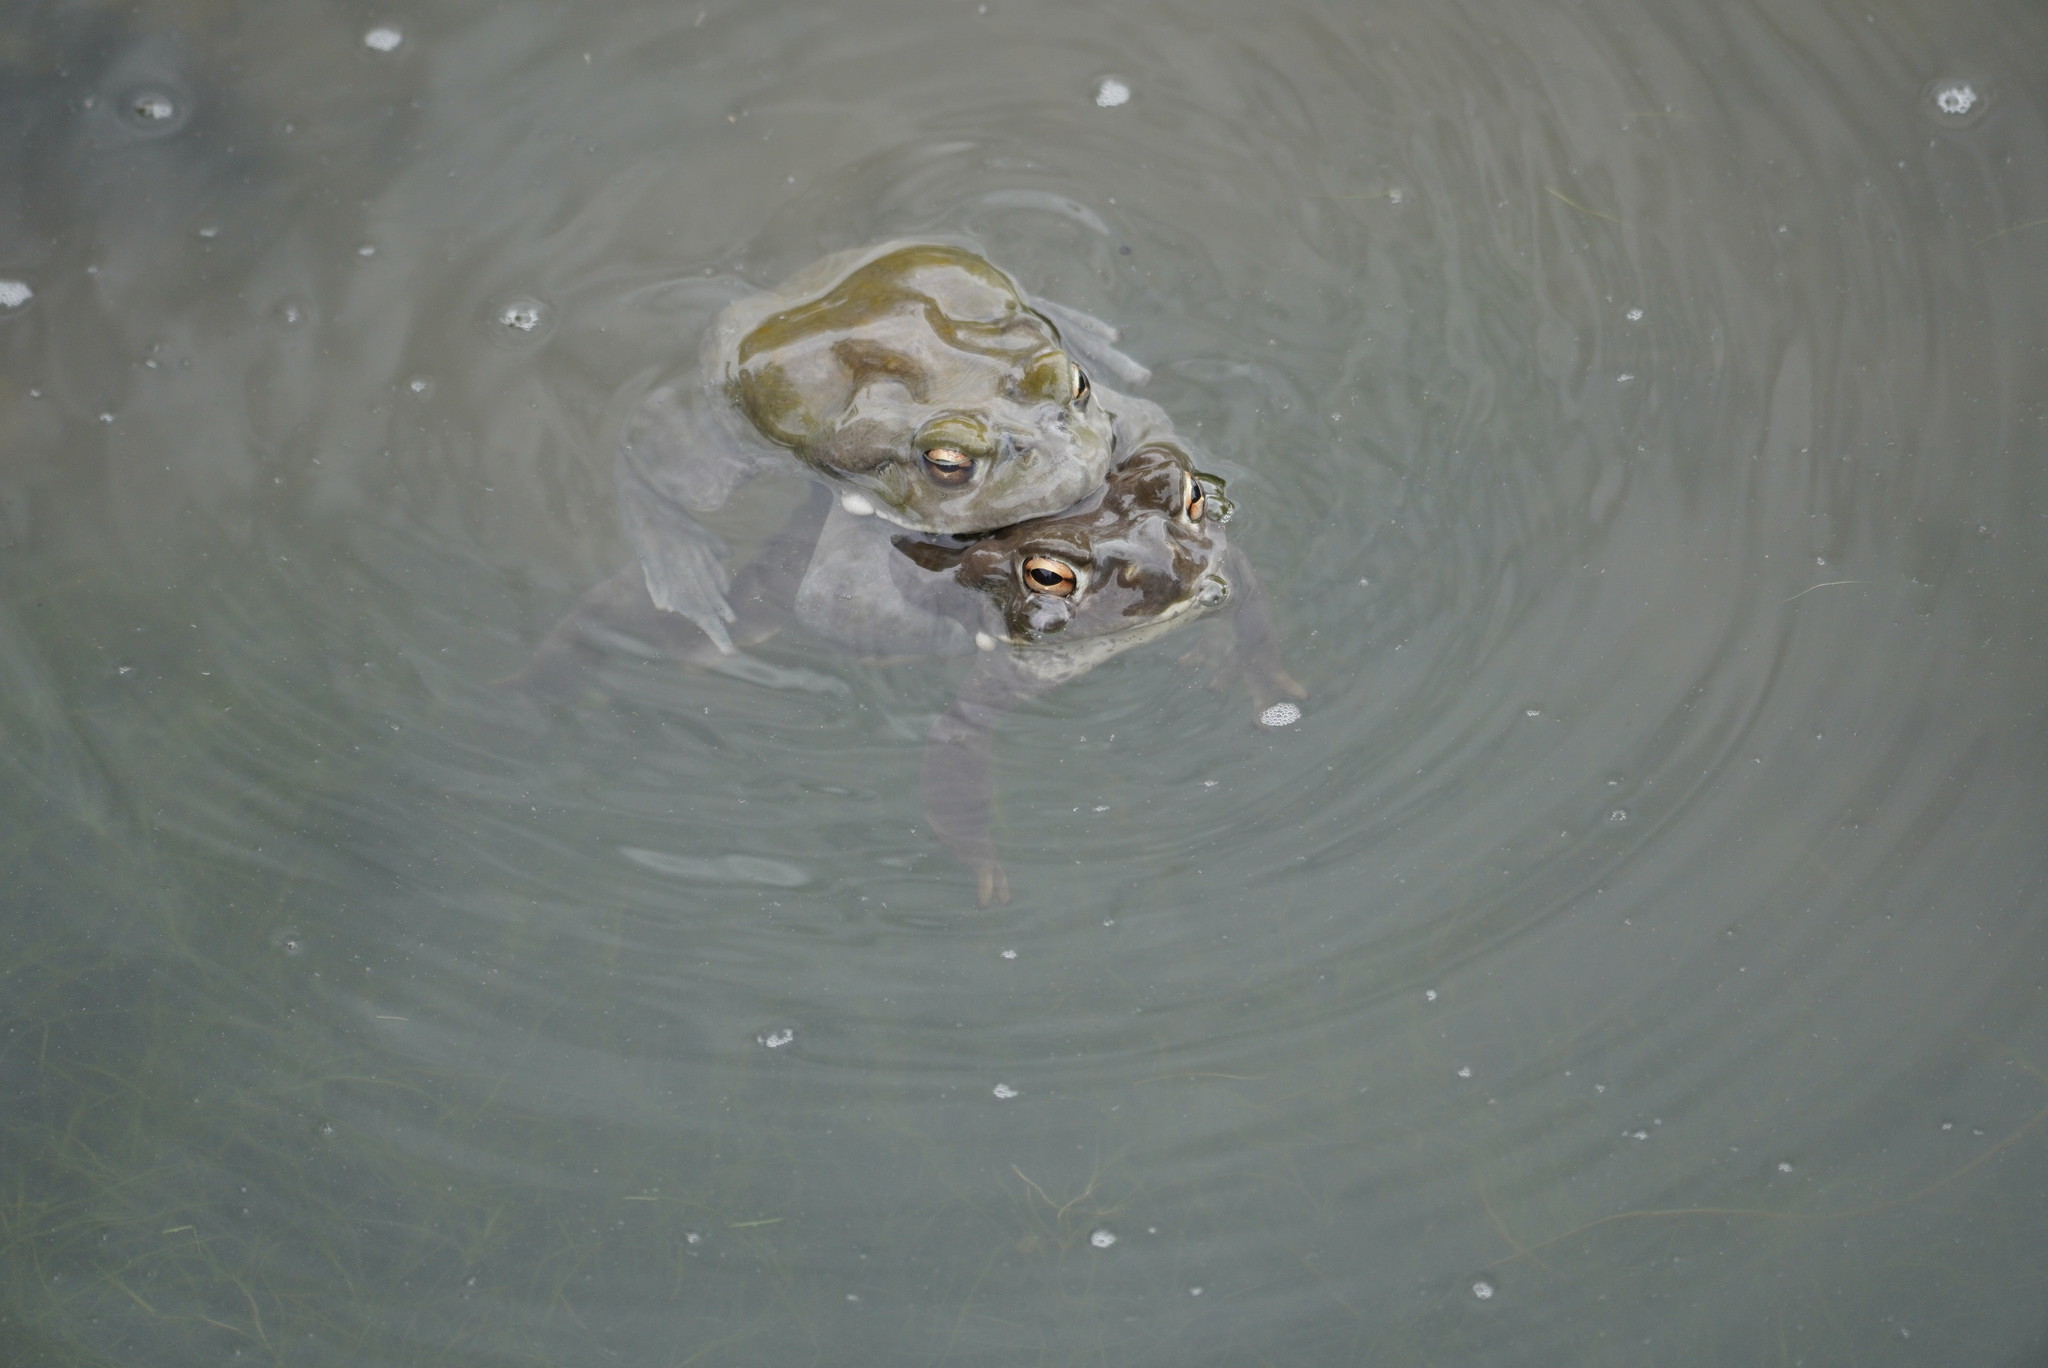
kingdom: Animalia
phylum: Chordata
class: Amphibia
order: Anura
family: Bufonidae
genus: Incilius
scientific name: Incilius alvarius
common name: Sonoran desert toad
